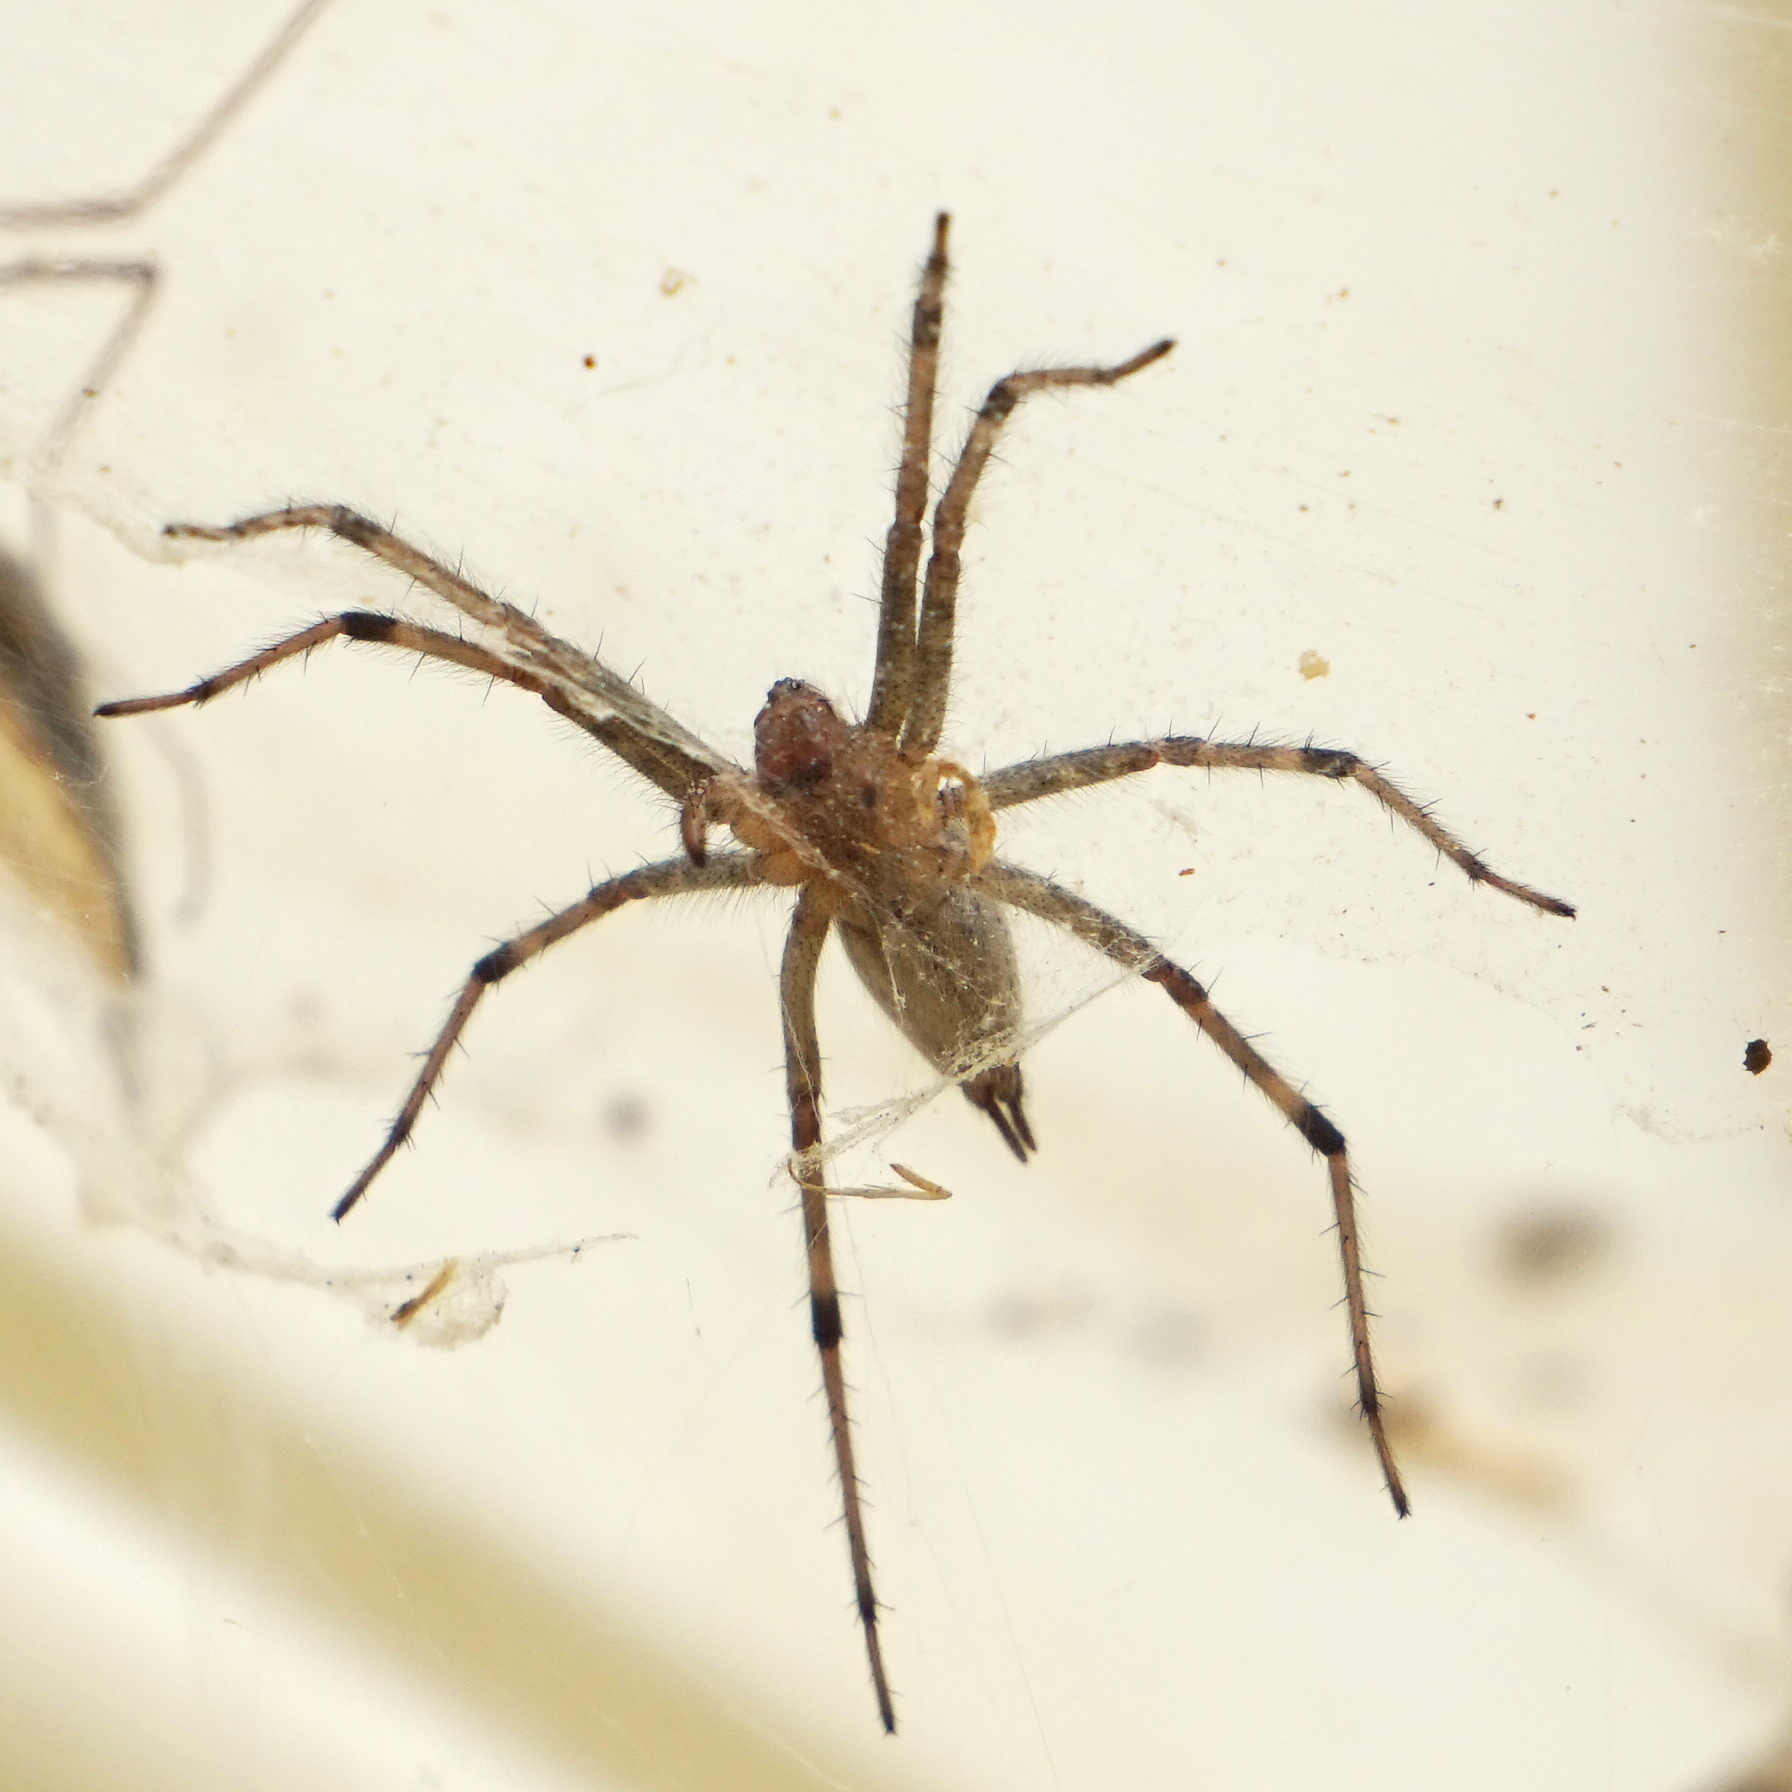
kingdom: Animalia
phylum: Arthropoda
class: Arachnida
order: Araneae
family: Agelenidae
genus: Agelenopsis
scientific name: Agelenopsis
